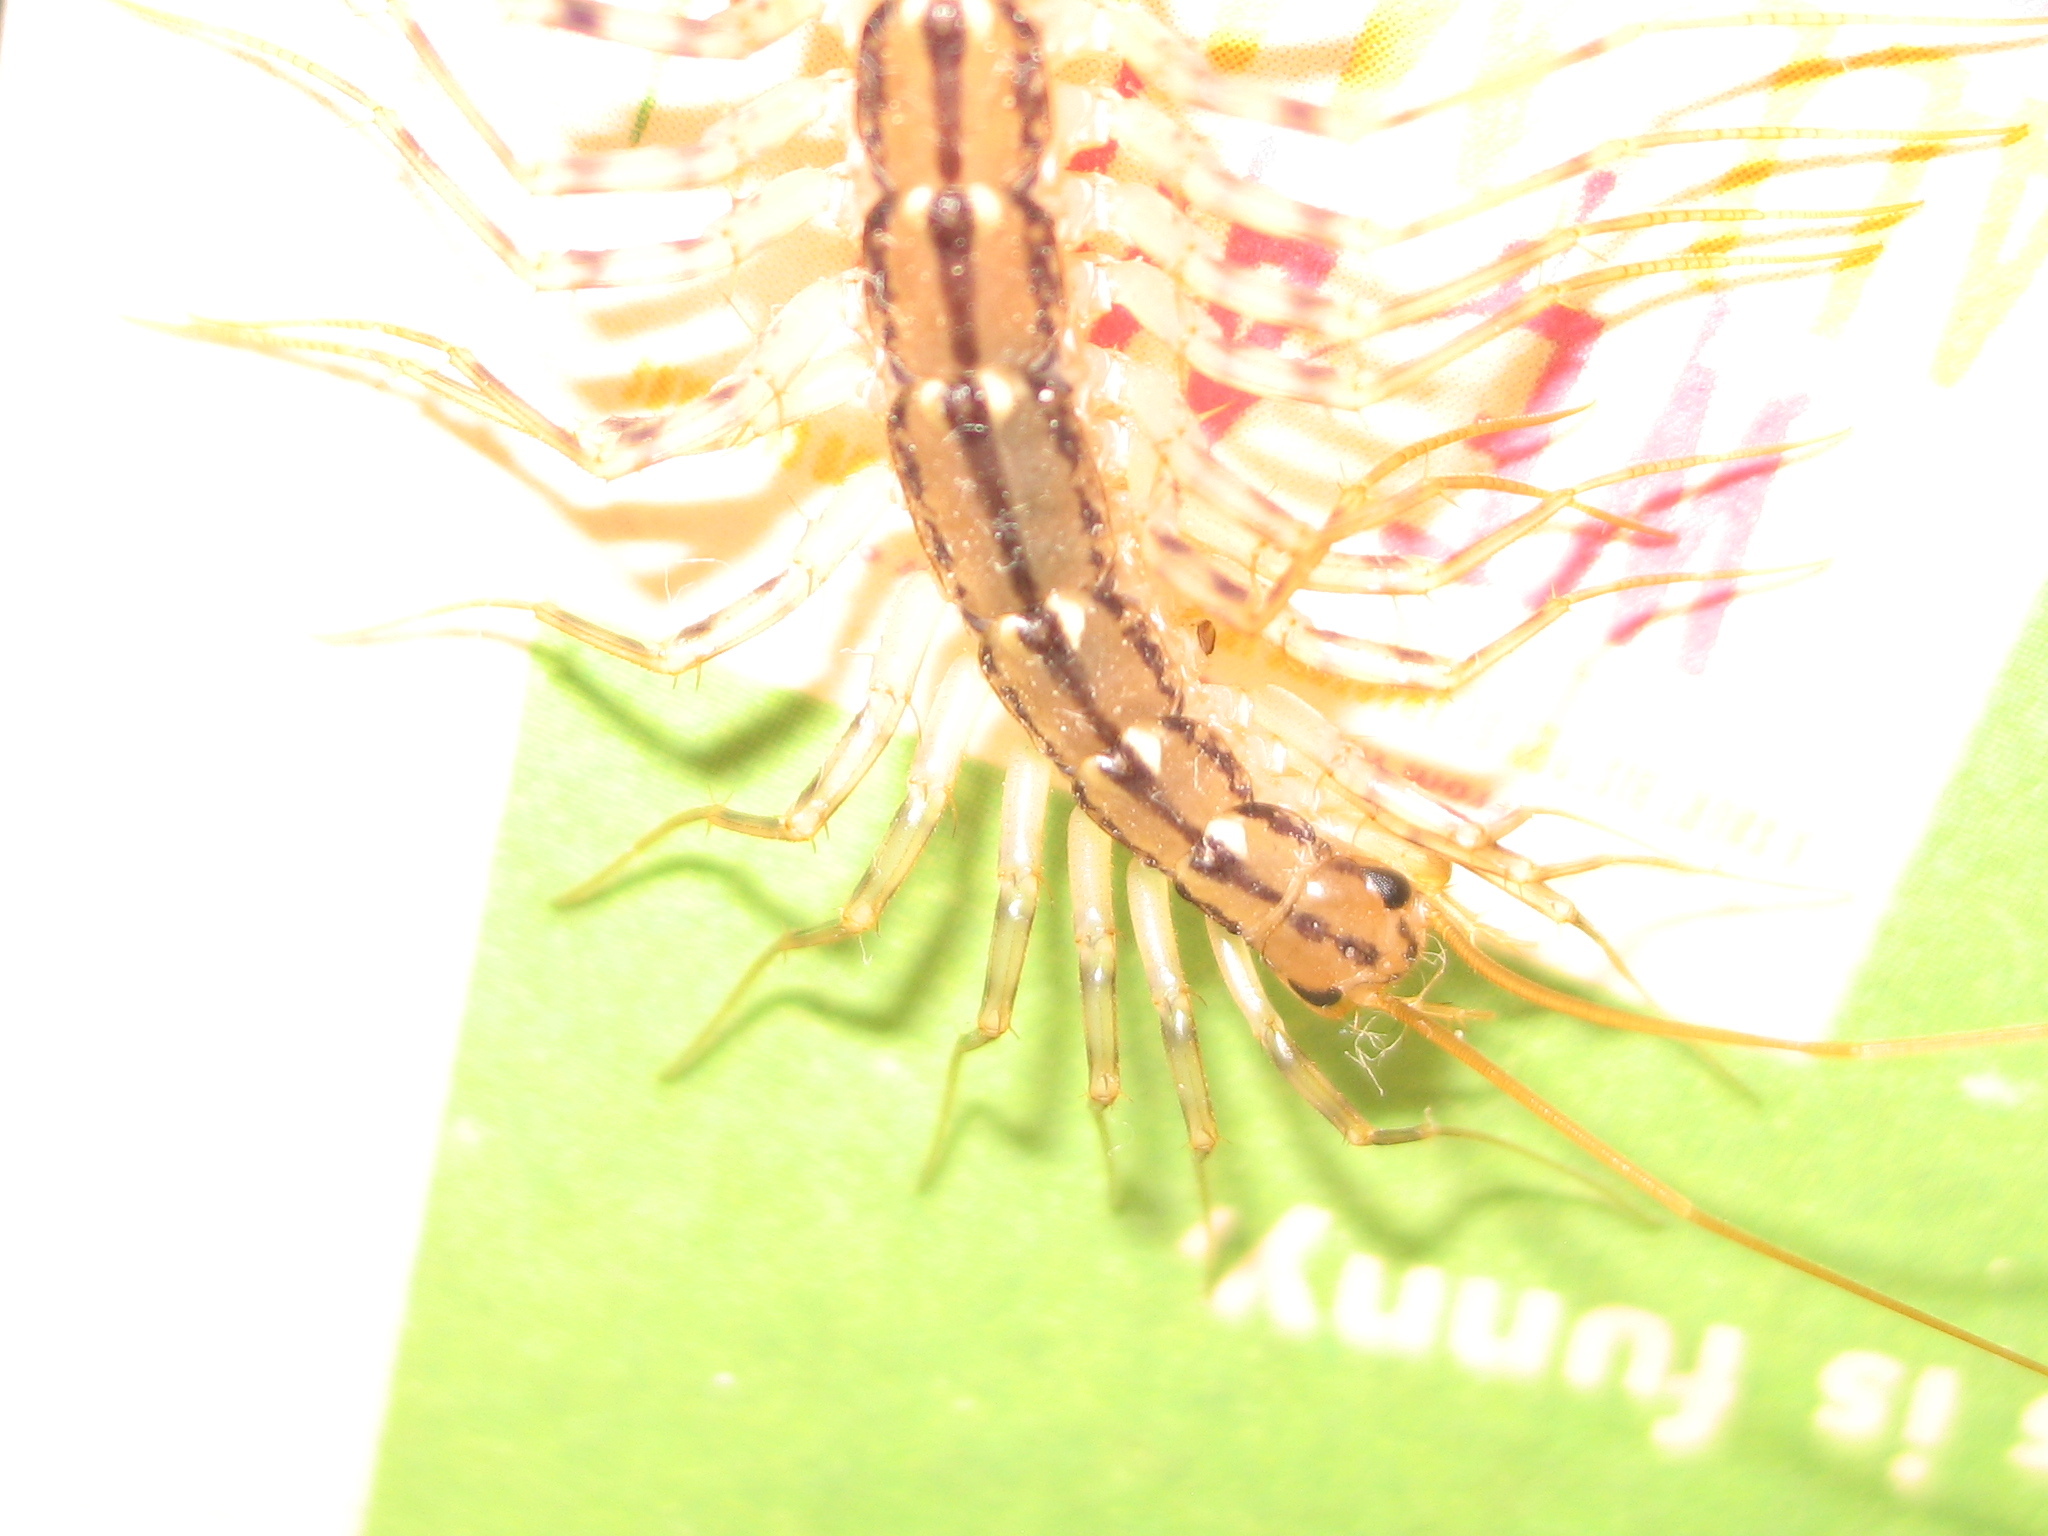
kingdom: Animalia
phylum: Arthropoda
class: Chilopoda
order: Scutigeromorpha
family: Scutigeridae
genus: Scutigera
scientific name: Scutigera coleoptrata
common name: House centipede
